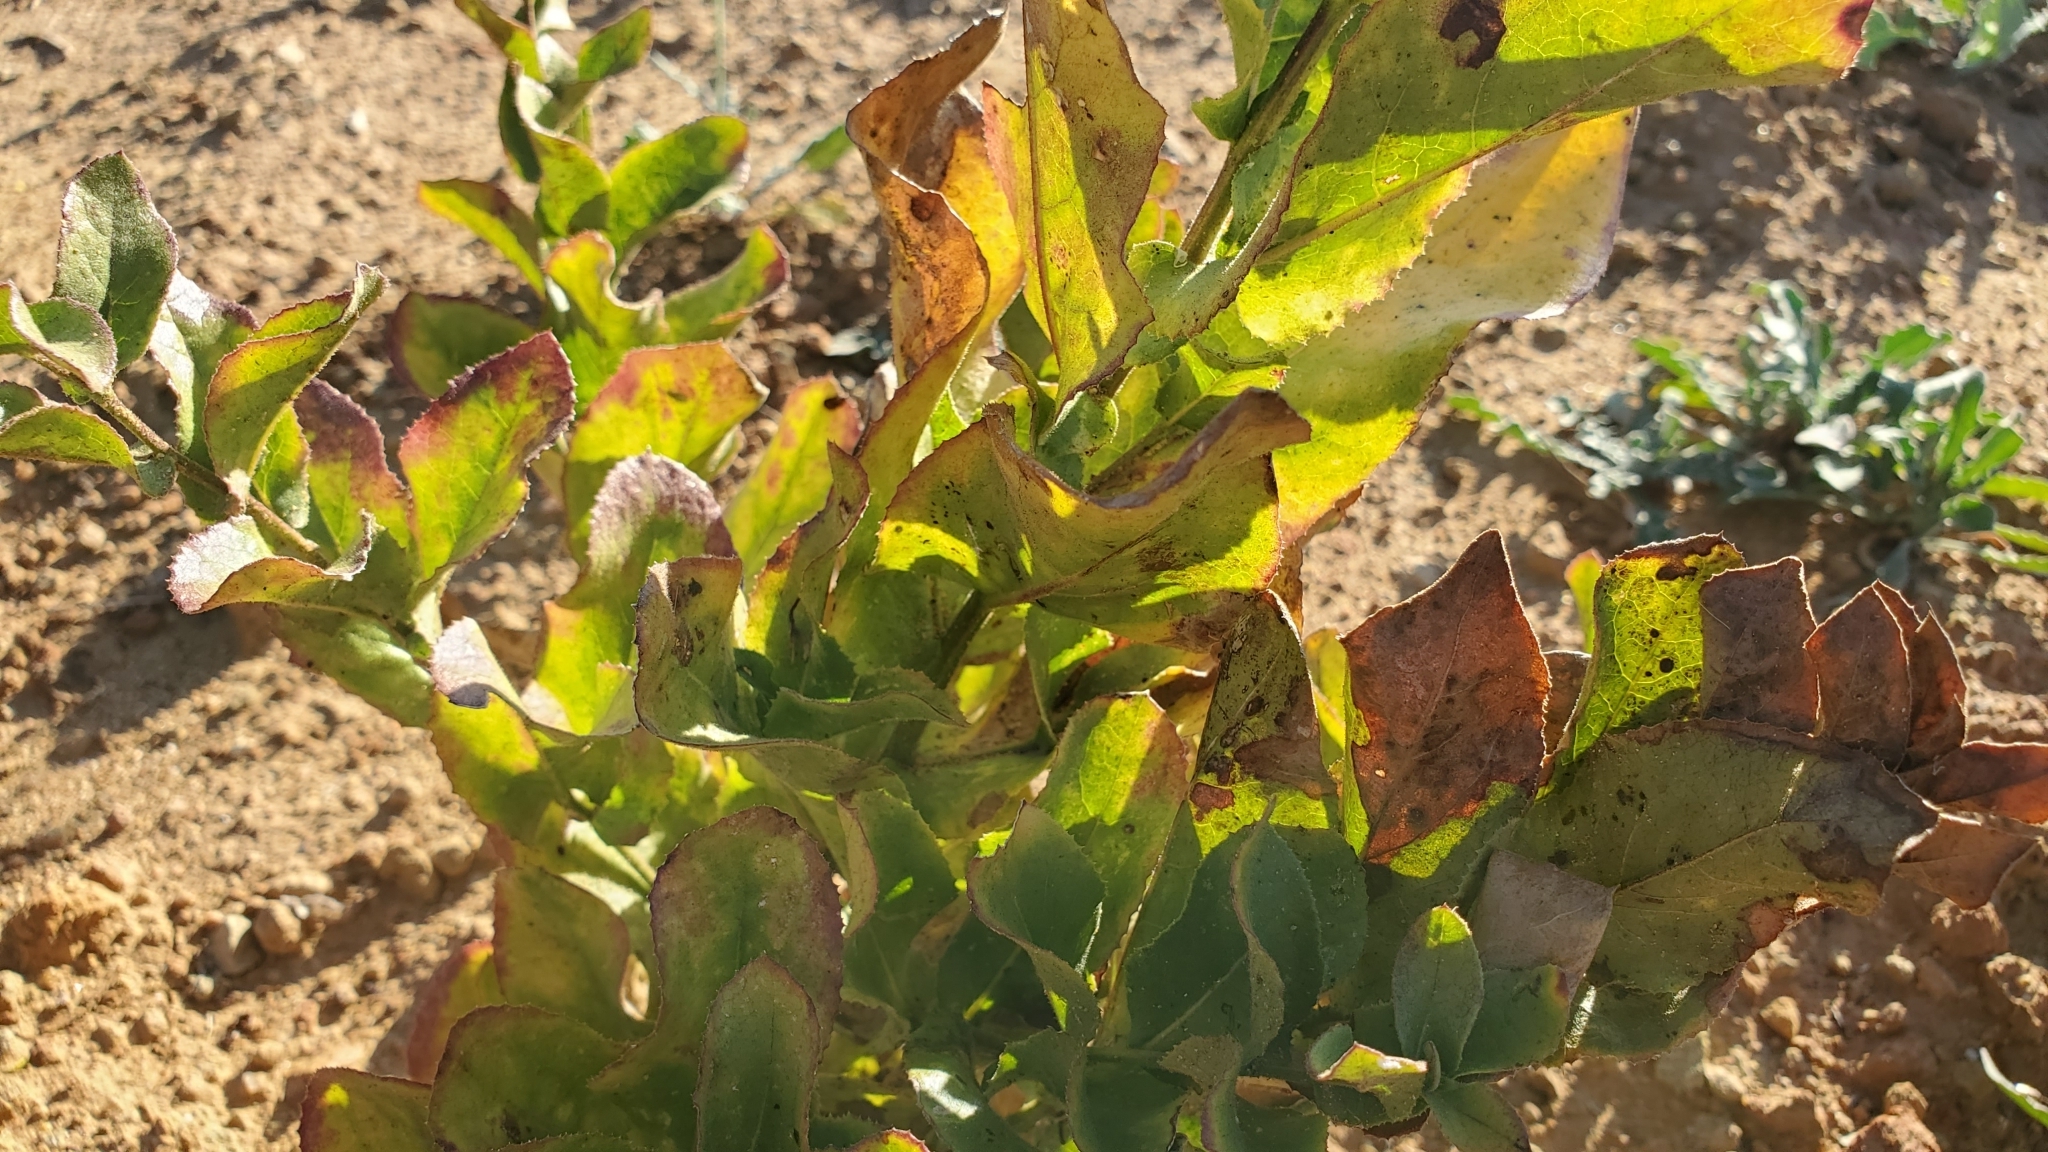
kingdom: Plantae
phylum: Tracheophyta
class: Magnoliopsida
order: Asterales
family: Asteraceae
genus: Acourtia
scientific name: Acourtia microcephala
